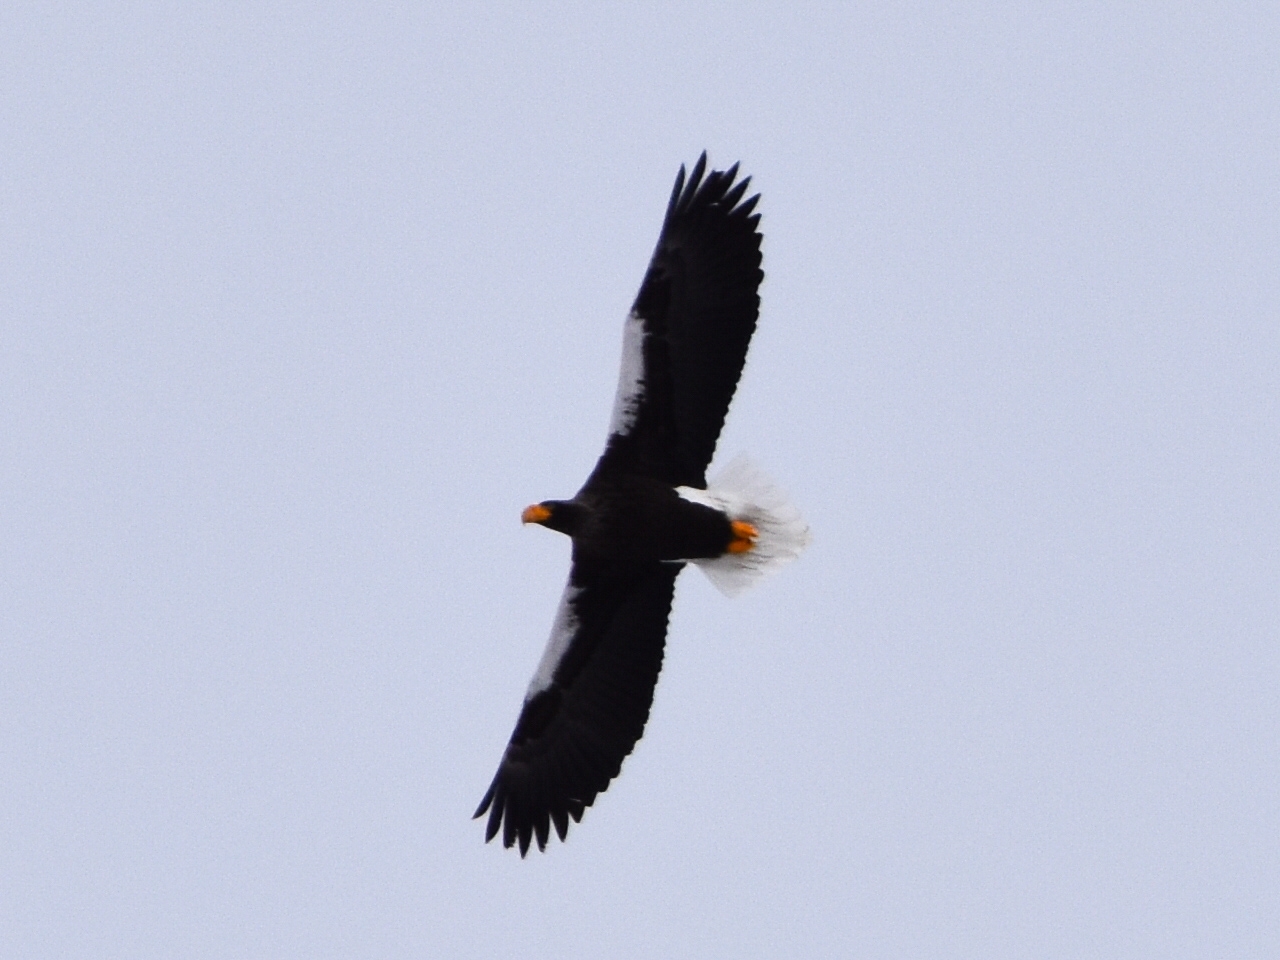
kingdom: Animalia
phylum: Chordata
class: Aves
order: Accipitriformes
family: Accipitridae
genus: Haliaeetus
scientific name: Haliaeetus pelagicus
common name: Steller's sea eagle
